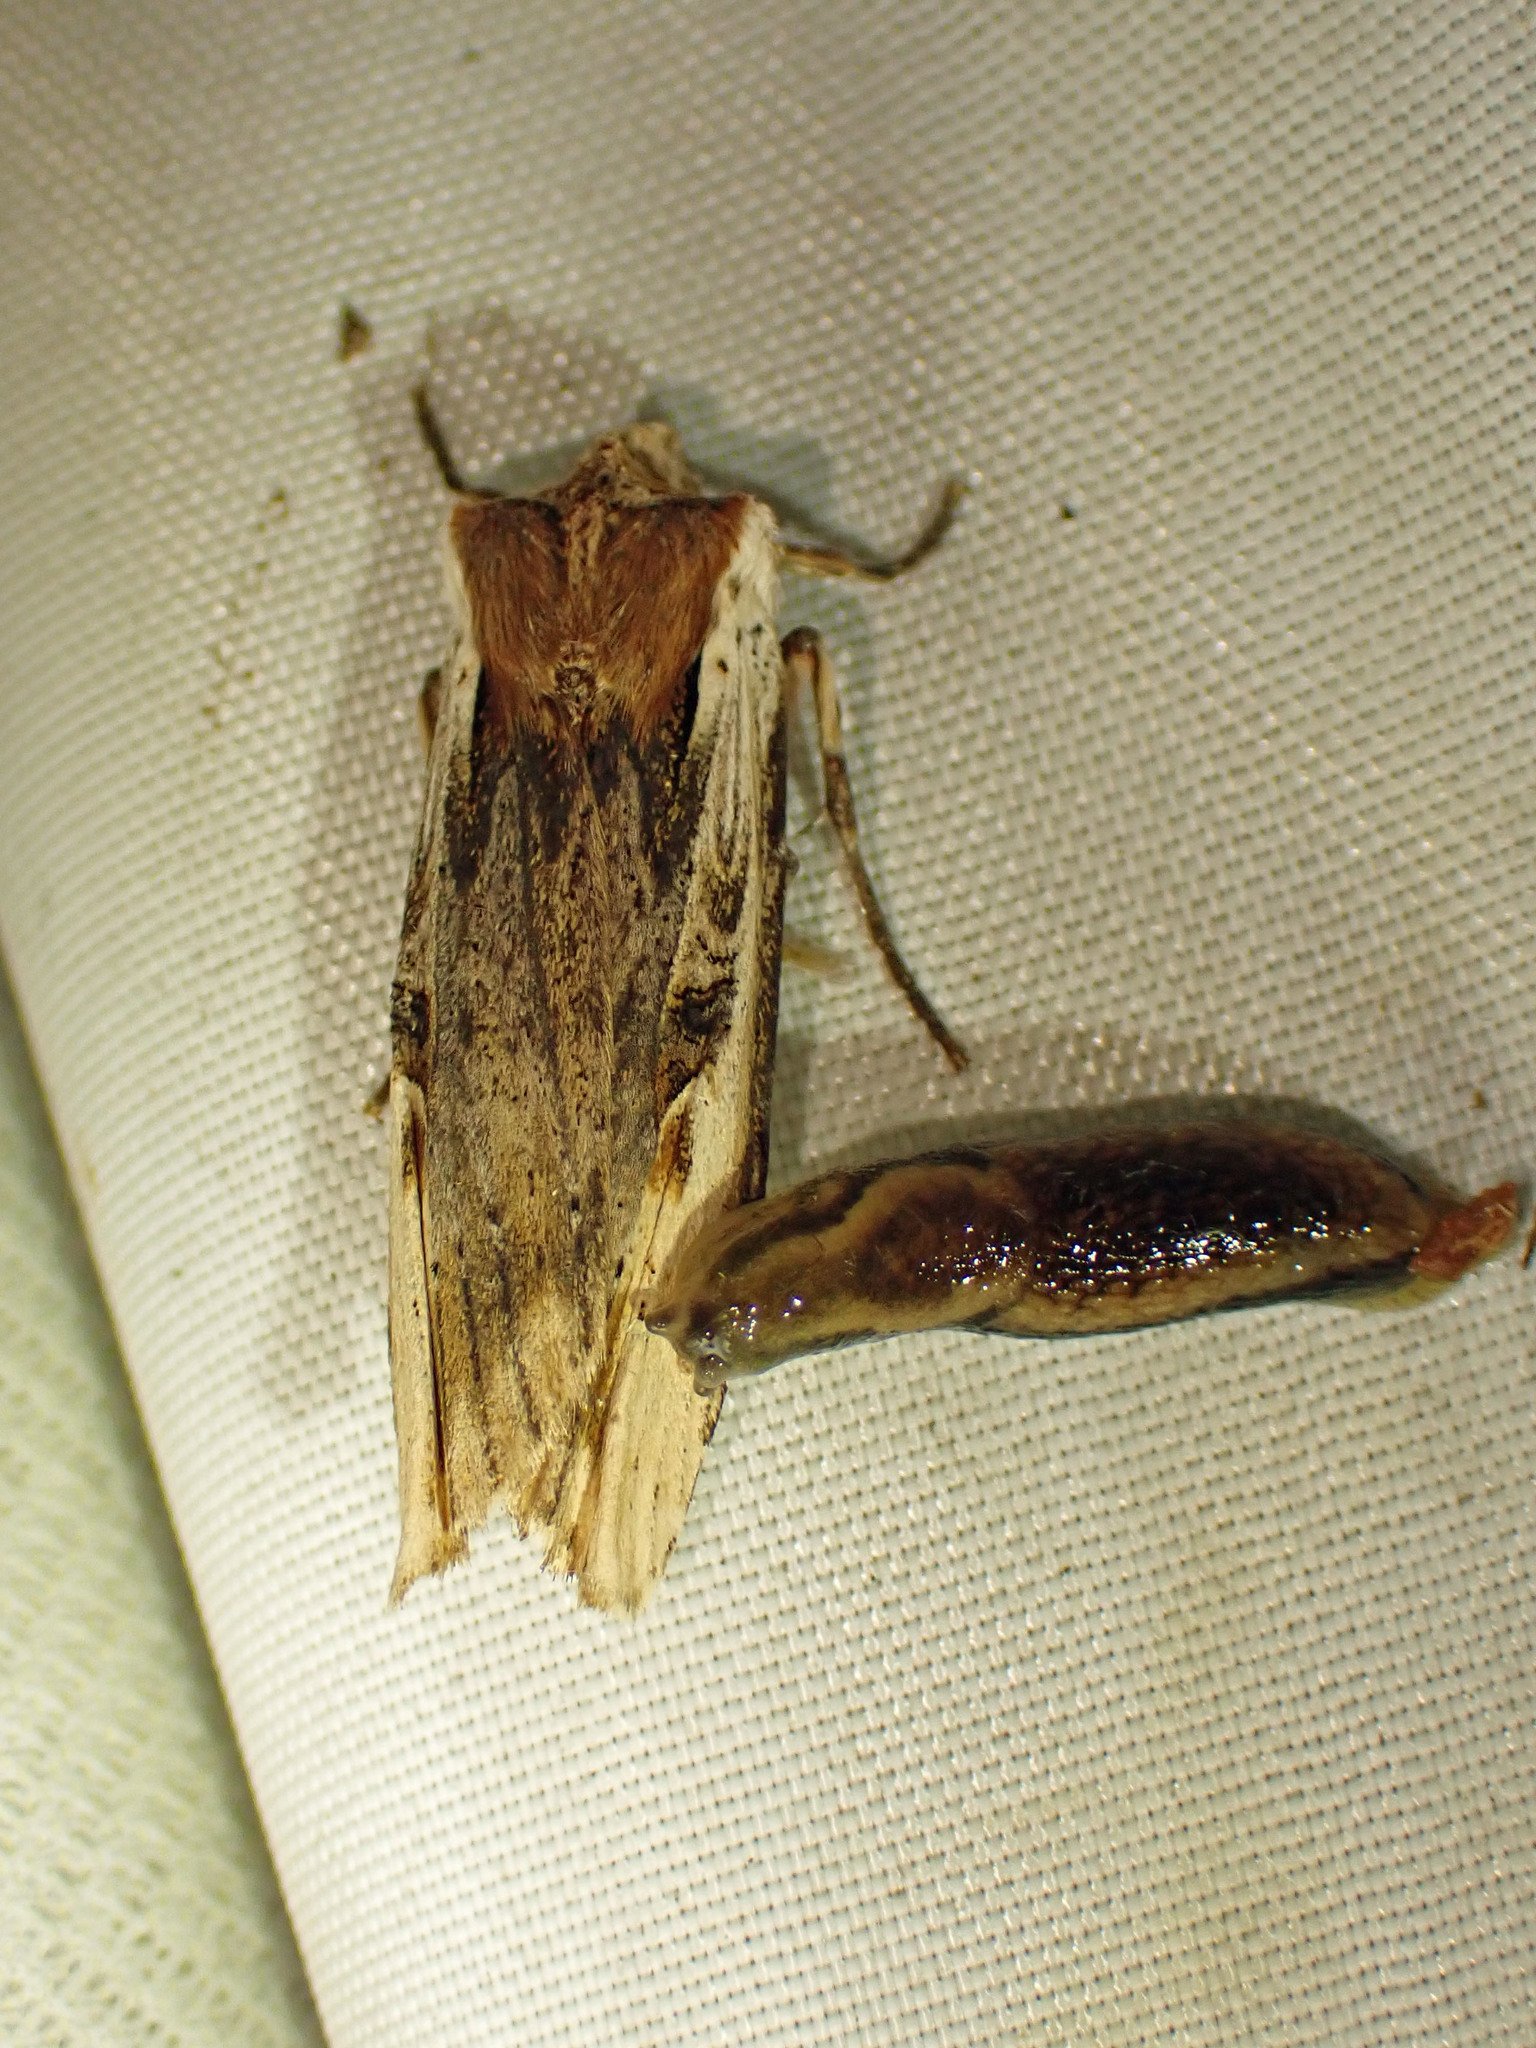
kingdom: Animalia
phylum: Arthropoda
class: Insecta
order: Lepidoptera
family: Noctuidae
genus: Xylena
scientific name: Xylena curvimacula
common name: Dot-and-dash swordgrass moth
